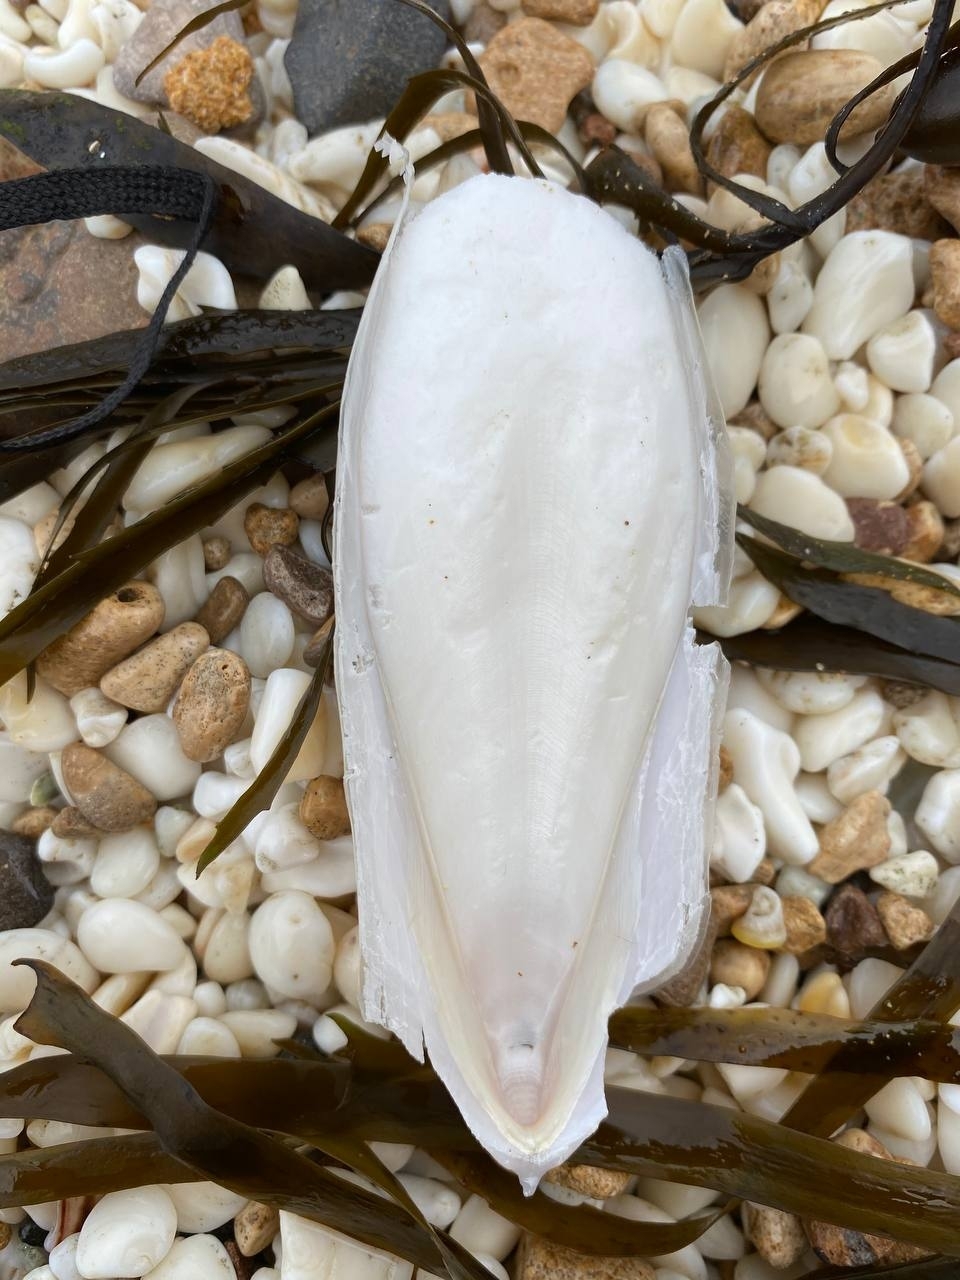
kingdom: Animalia
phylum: Mollusca
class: Cephalopoda
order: Sepiida
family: Sepiidae
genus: Ascarosepion
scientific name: Ascarosepion apama
